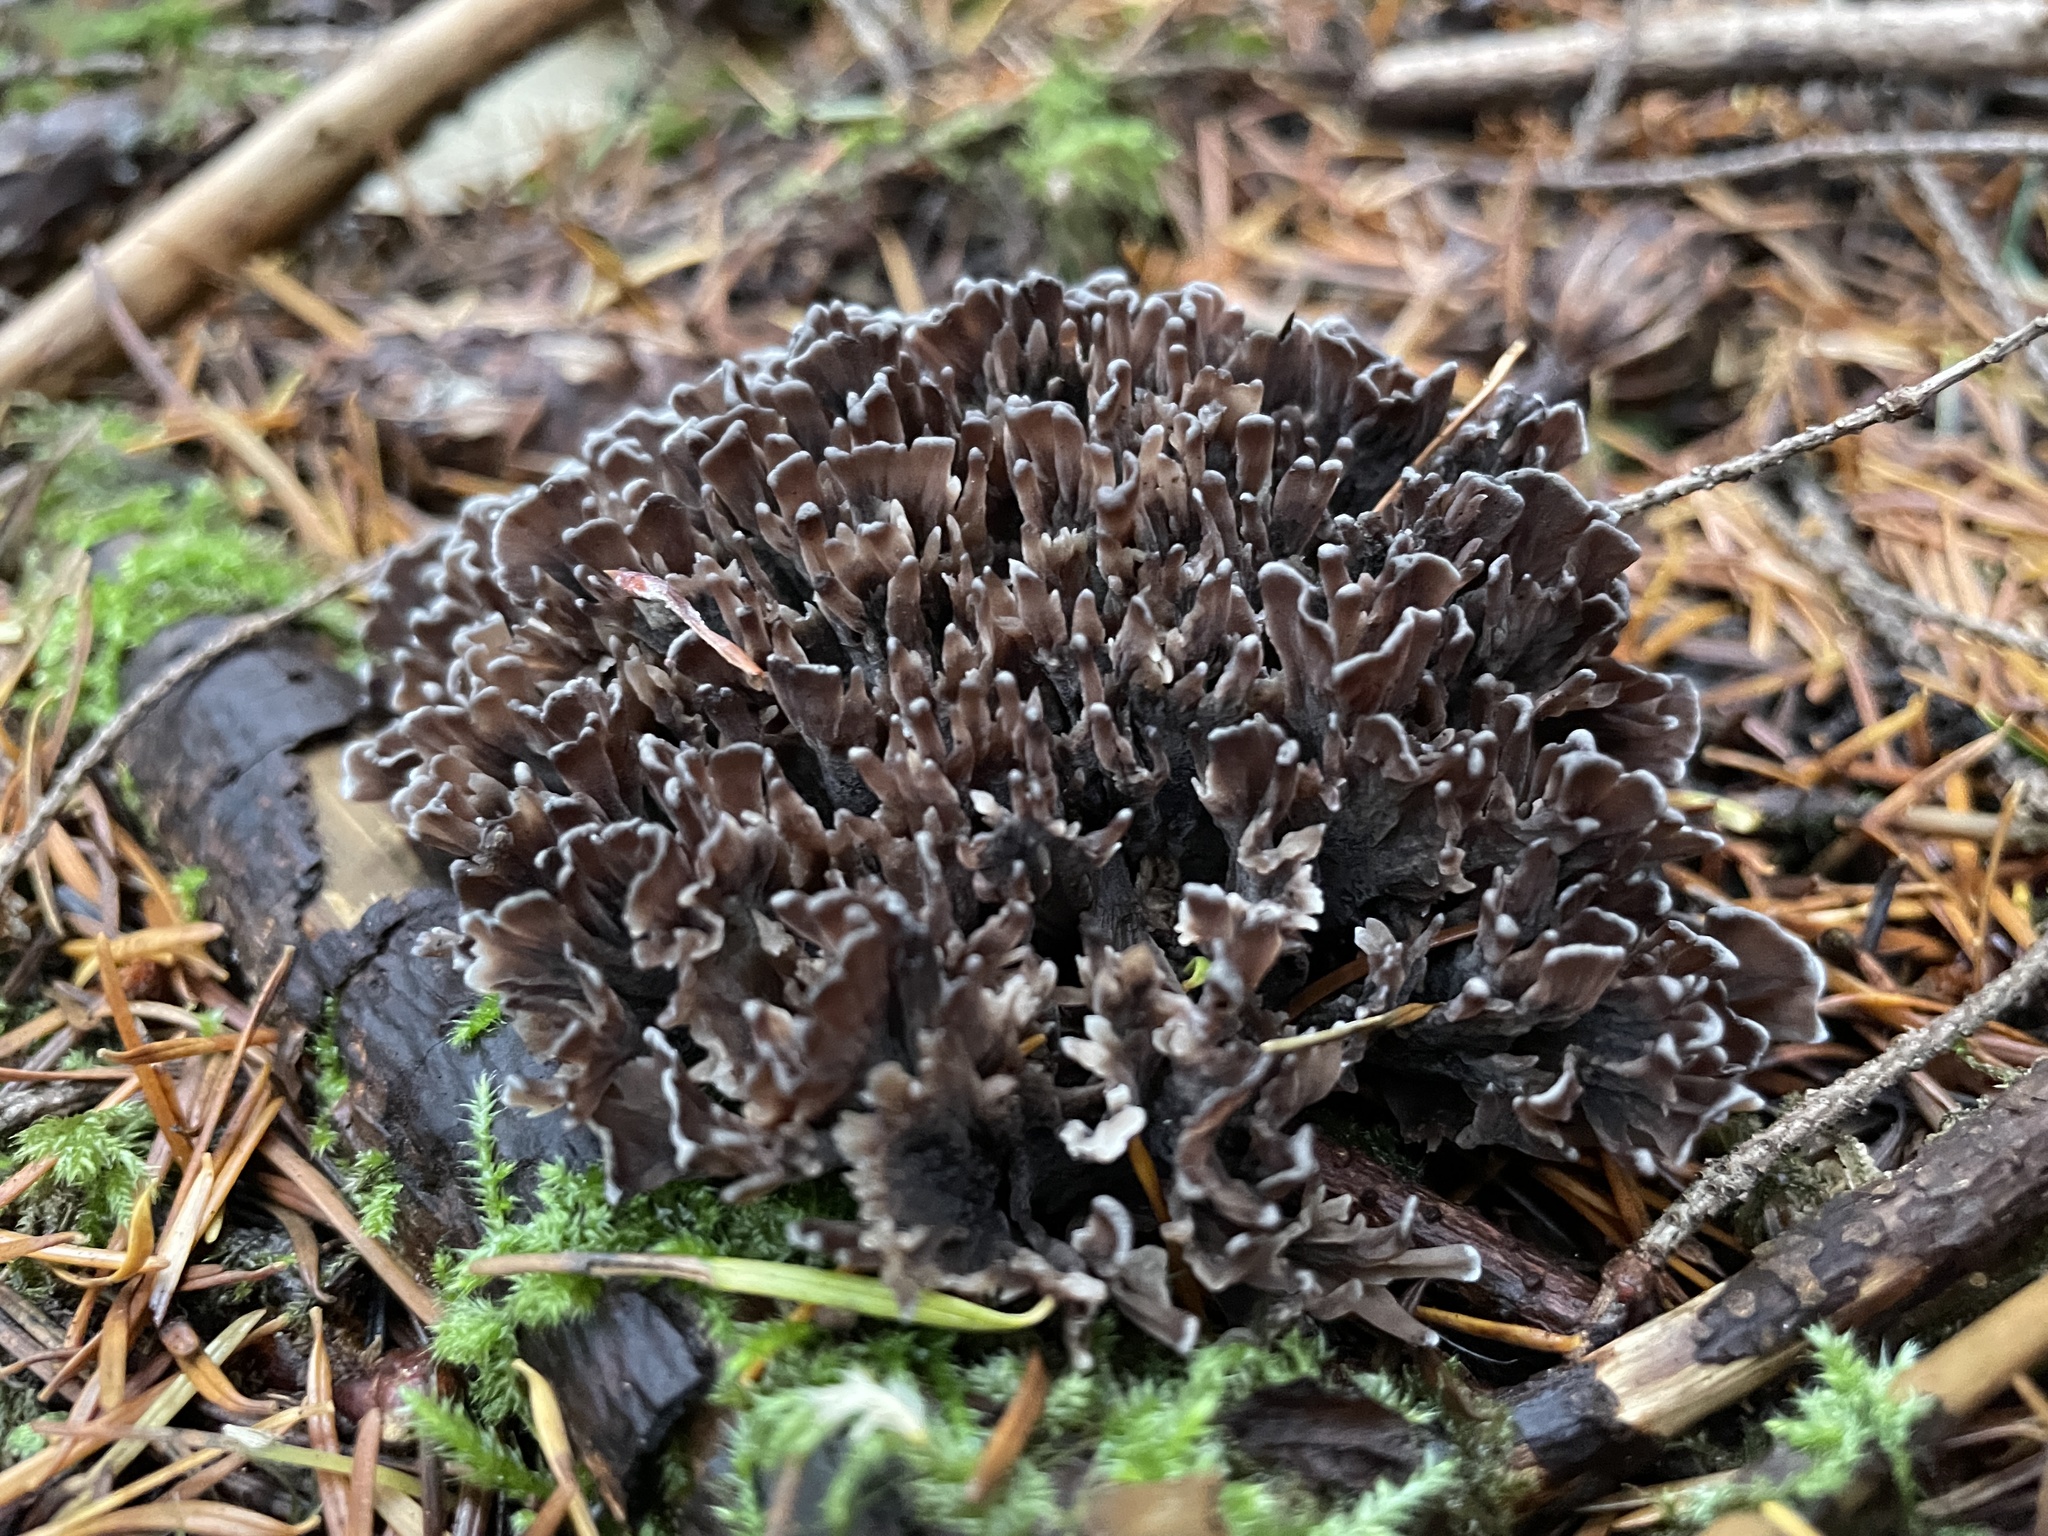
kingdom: Fungi
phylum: Basidiomycota
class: Agaricomycetes
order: Thelephorales
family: Thelephoraceae
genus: Thelephora
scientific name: Thelephora palmata
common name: Stinking earthfan
